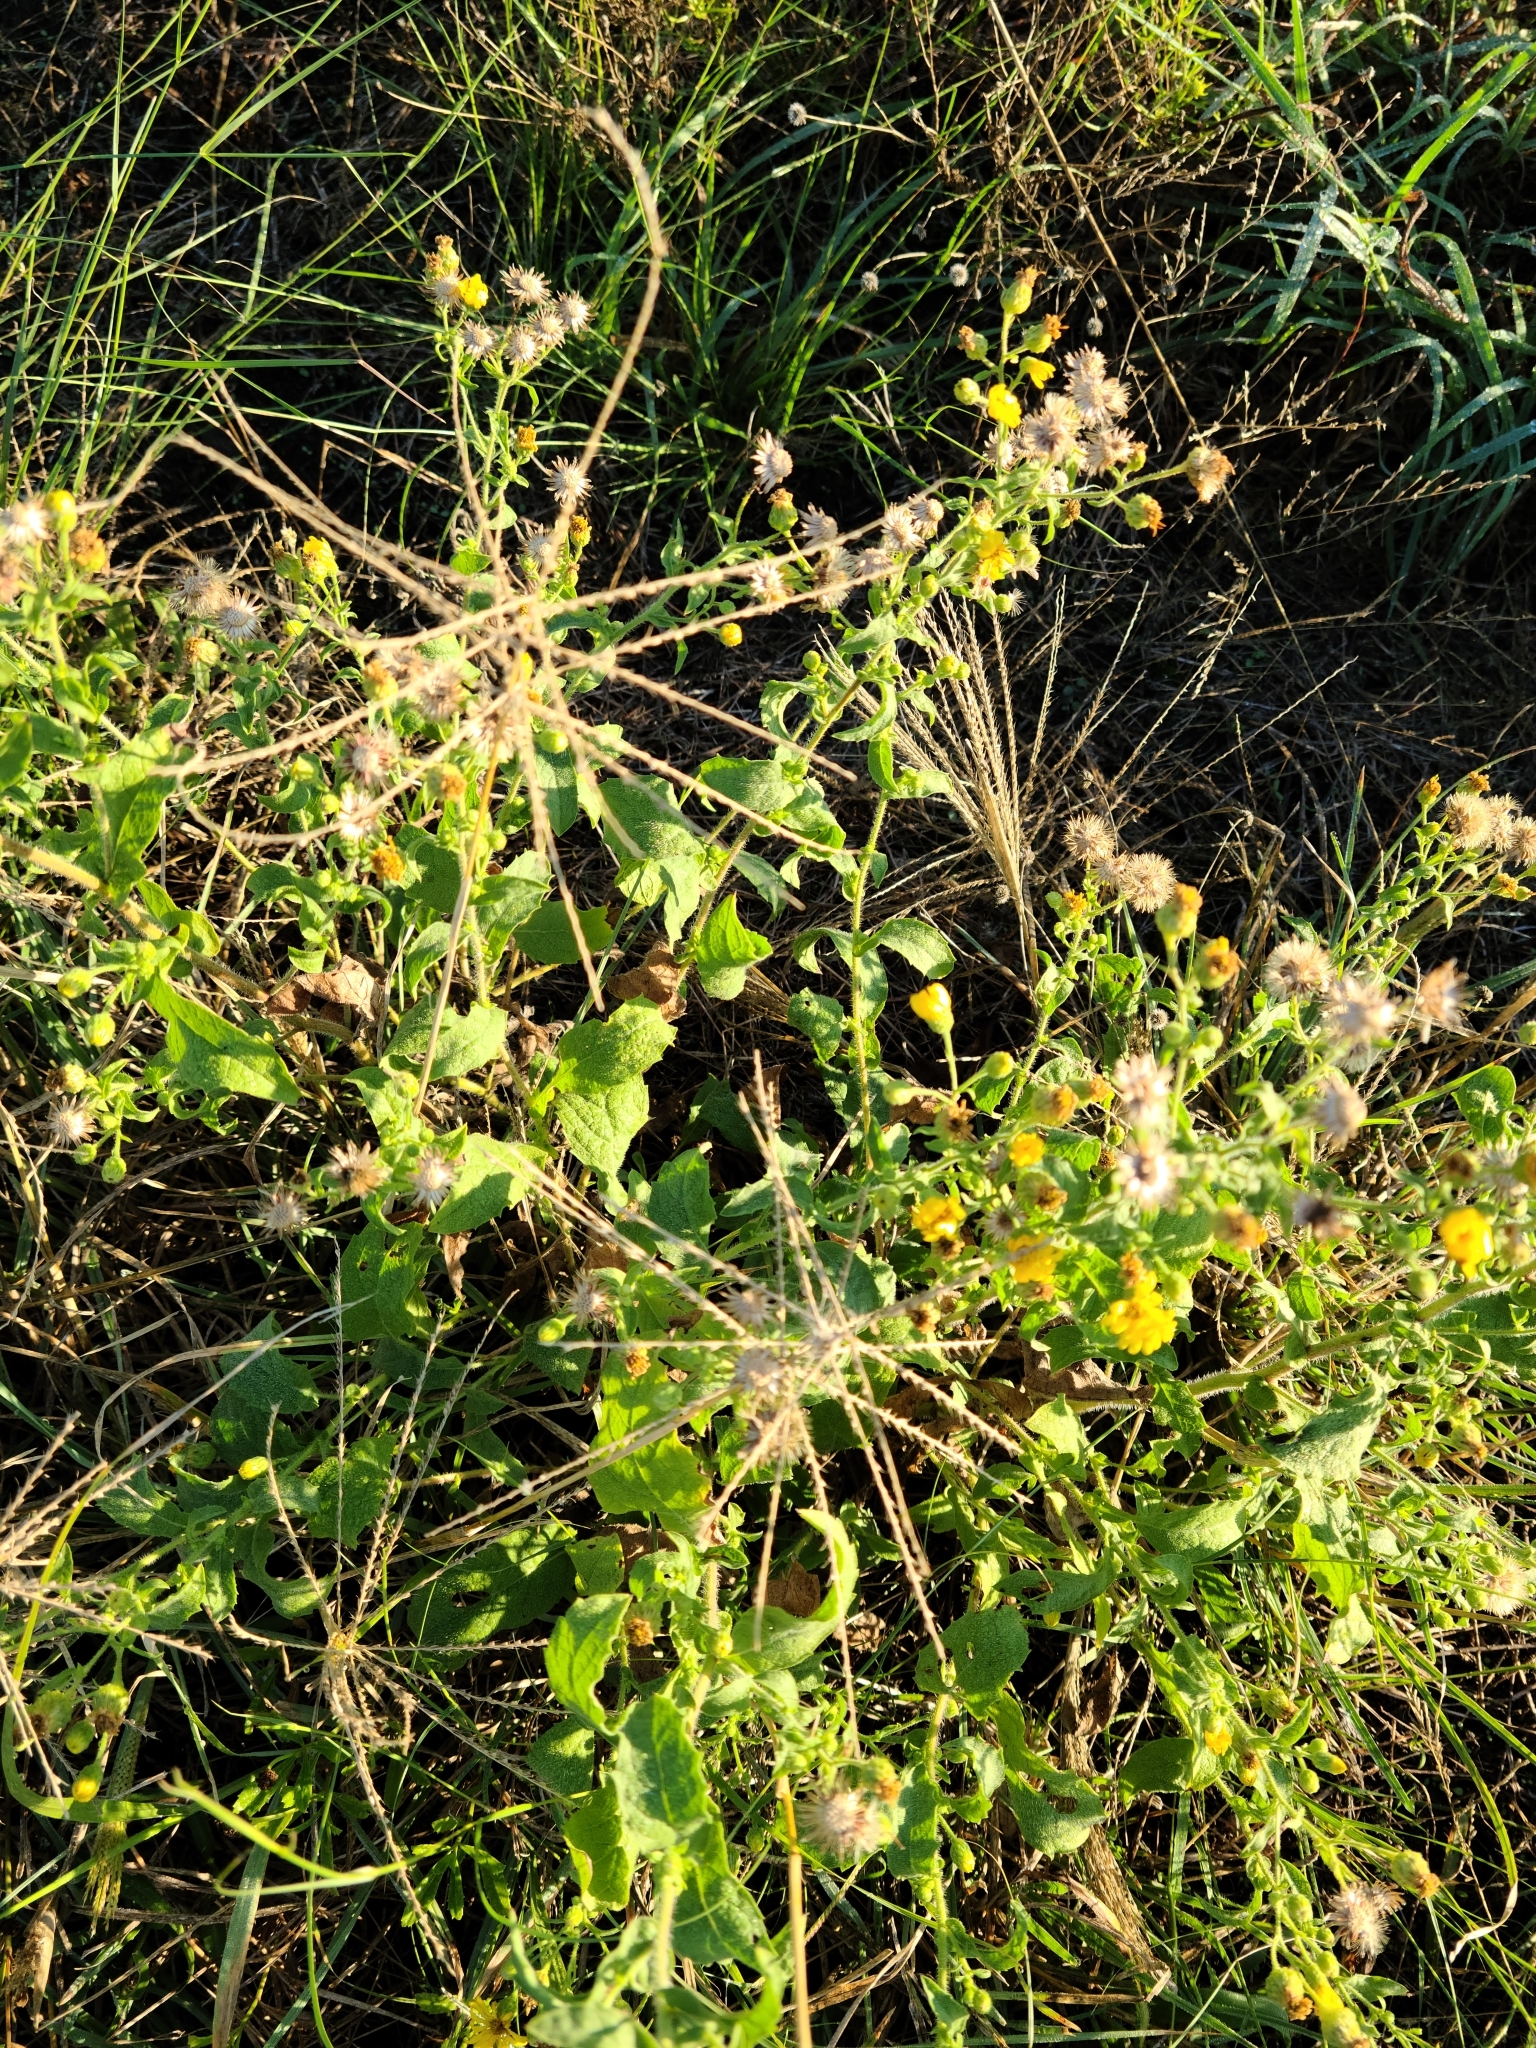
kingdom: Plantae
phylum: Tracheophyta
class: Magnoliopsida
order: Asterales
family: Asteraceae
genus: Heterotheca
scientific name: Heterotheca subaxillaris
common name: Camphorweed
